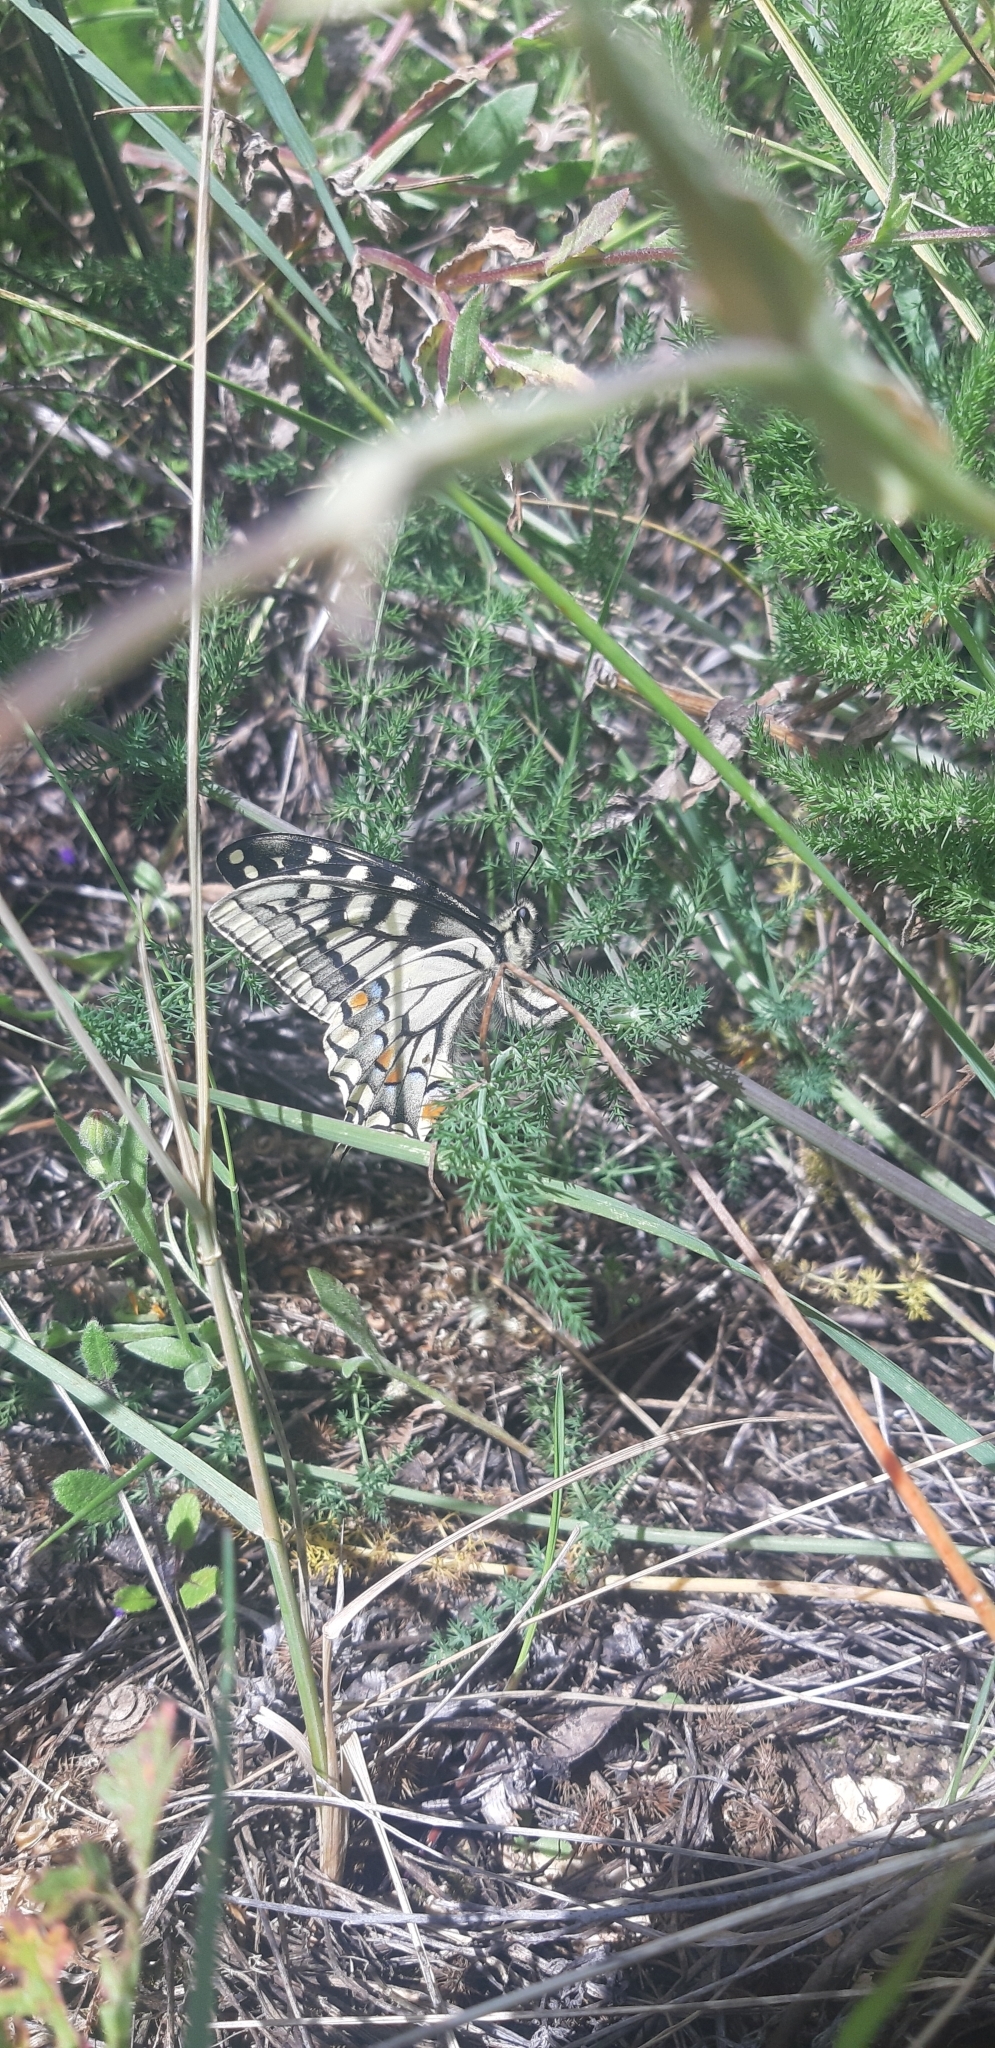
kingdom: Animalia
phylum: Arthropoda
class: Insecta
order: Lepidoptera
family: Papilionidae
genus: Papilio
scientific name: Papilio machaon
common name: Swallowtail
